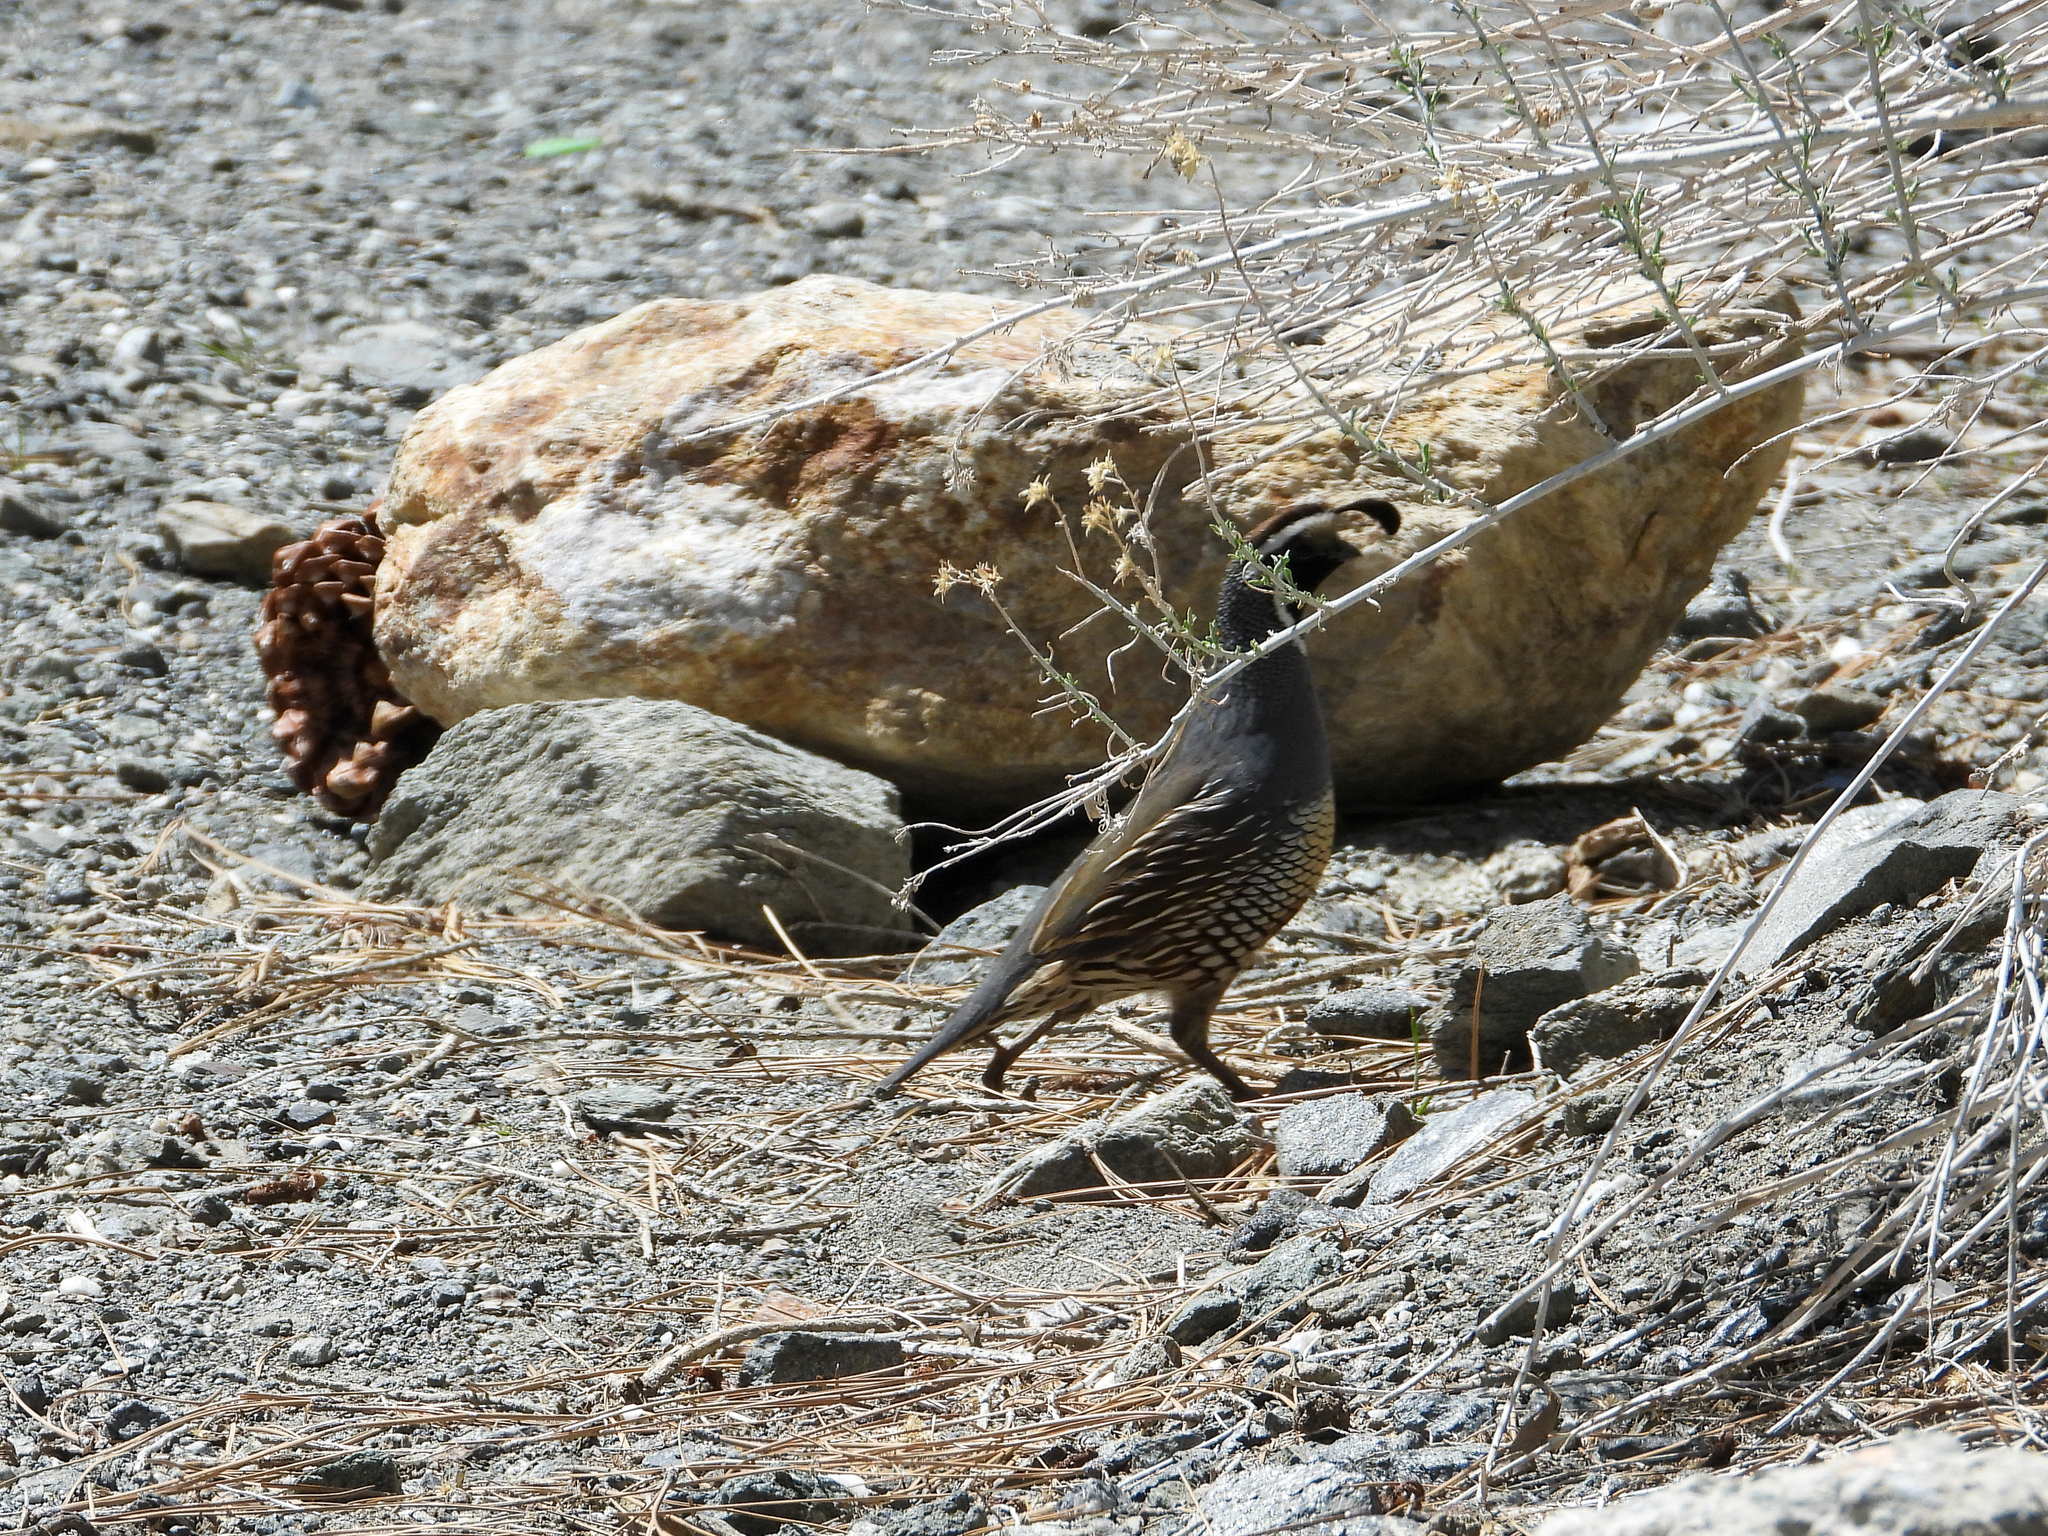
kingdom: Animalia
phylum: Chordata
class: Aves
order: Galliformes
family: Odontophoridae
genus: Callipepla
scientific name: Callipepla californica
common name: California quail
